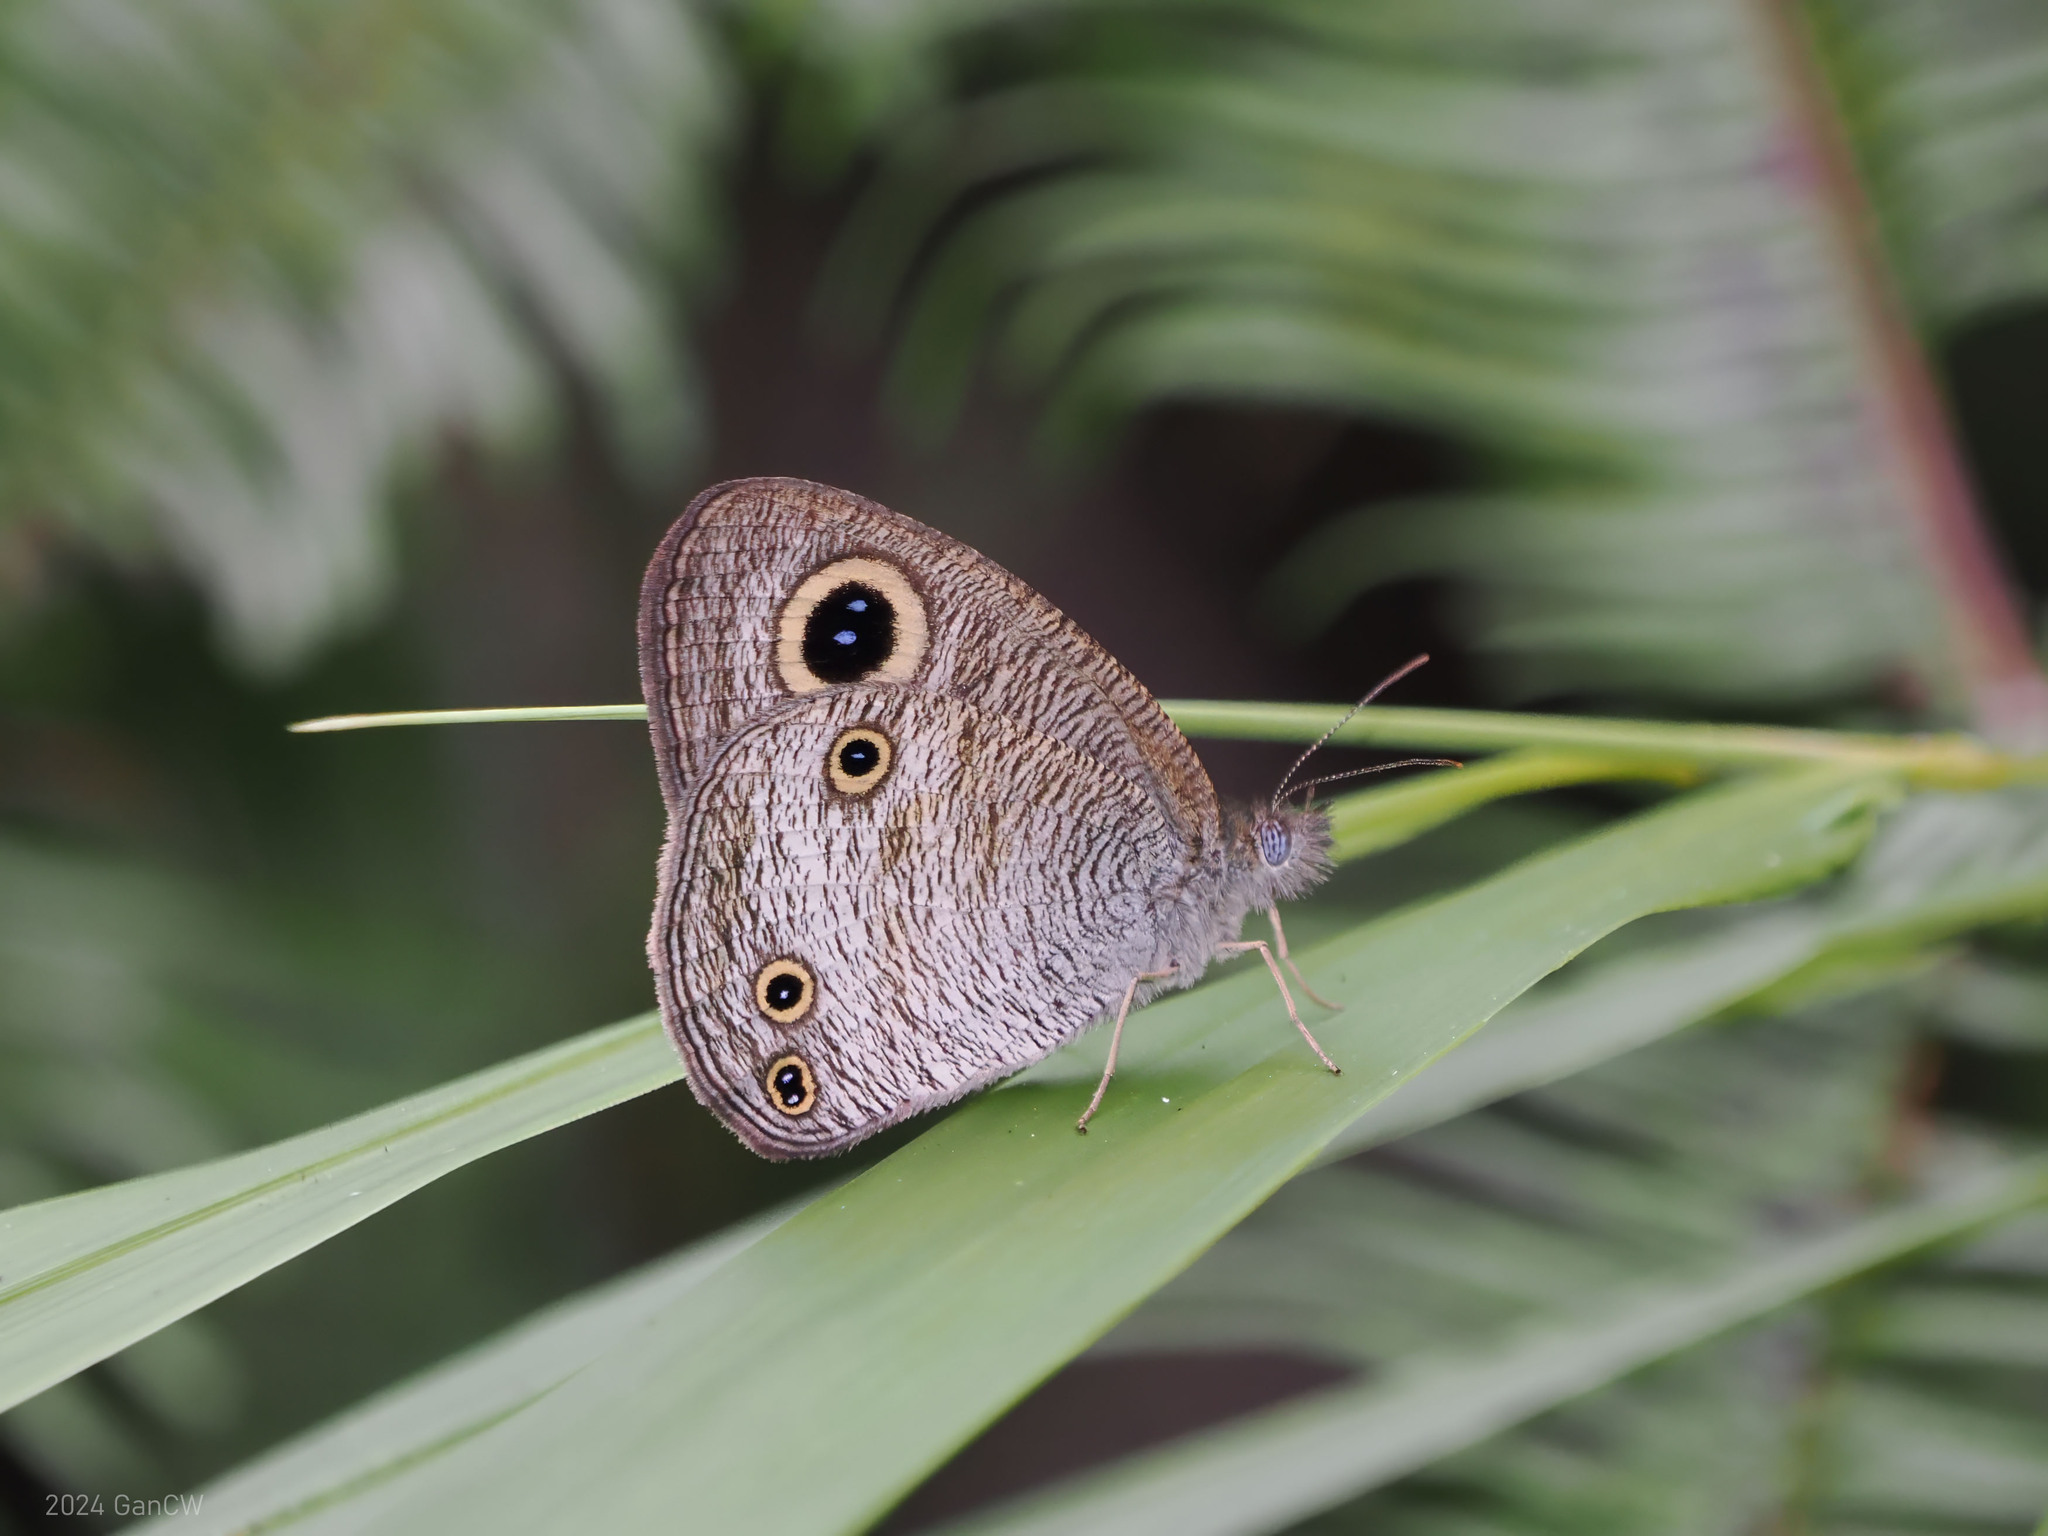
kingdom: Animalia
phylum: Arthropoda
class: Insecta
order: Lepidoptera
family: Nymphalidae
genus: Ypthima
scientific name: Ypthima pandocus
